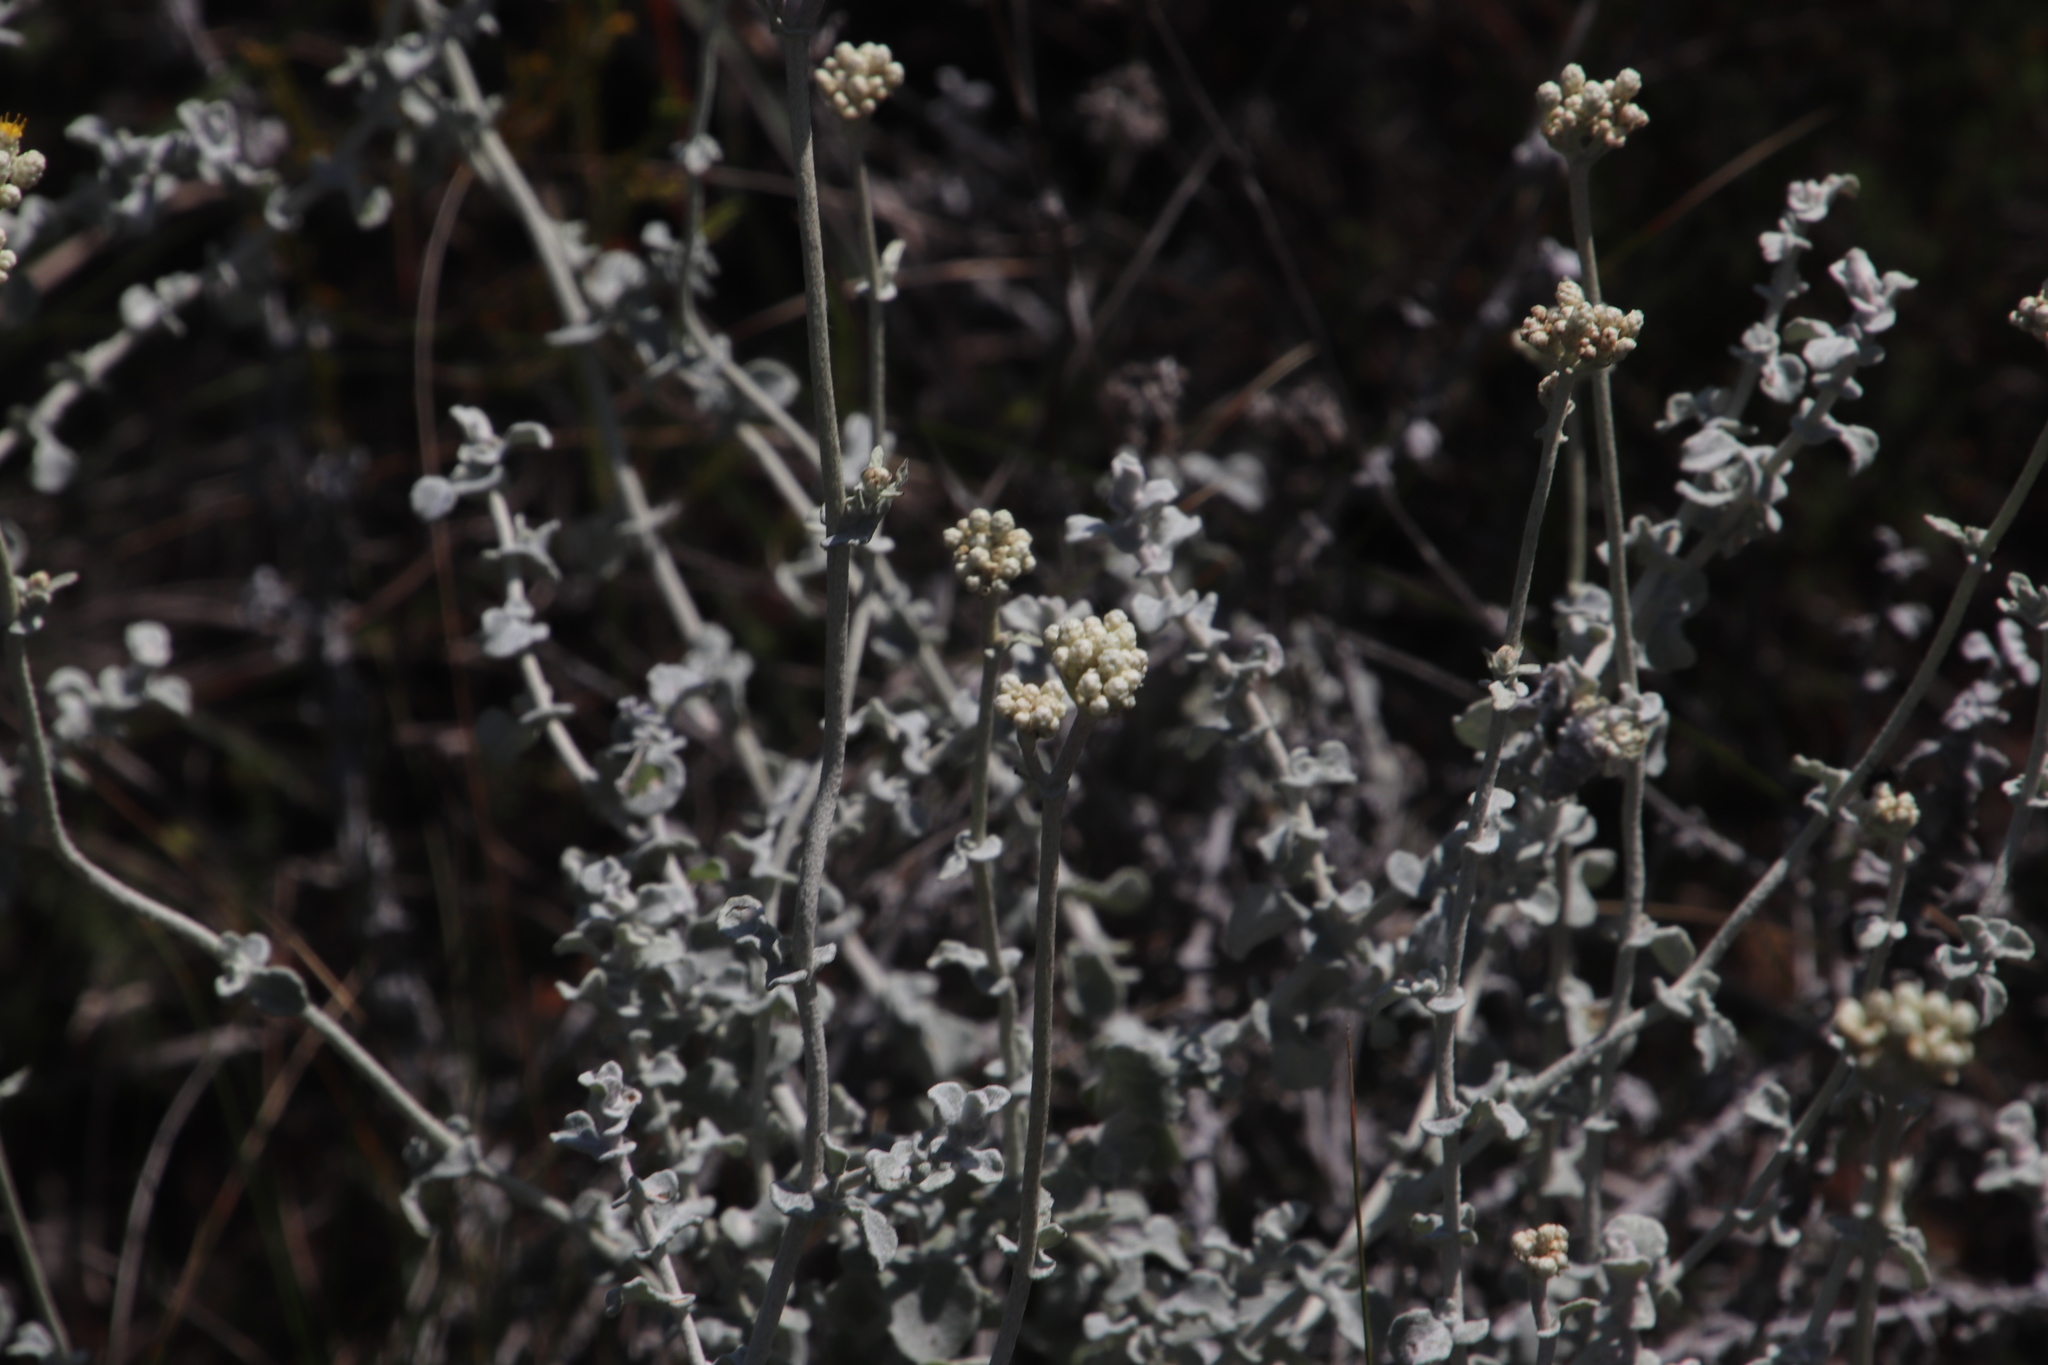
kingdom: Plantae
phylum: Tracheophyta
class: Magnoliopsida
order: Asterales
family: Asteraceae
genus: Helichrysum
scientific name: Helichrysum patulum
